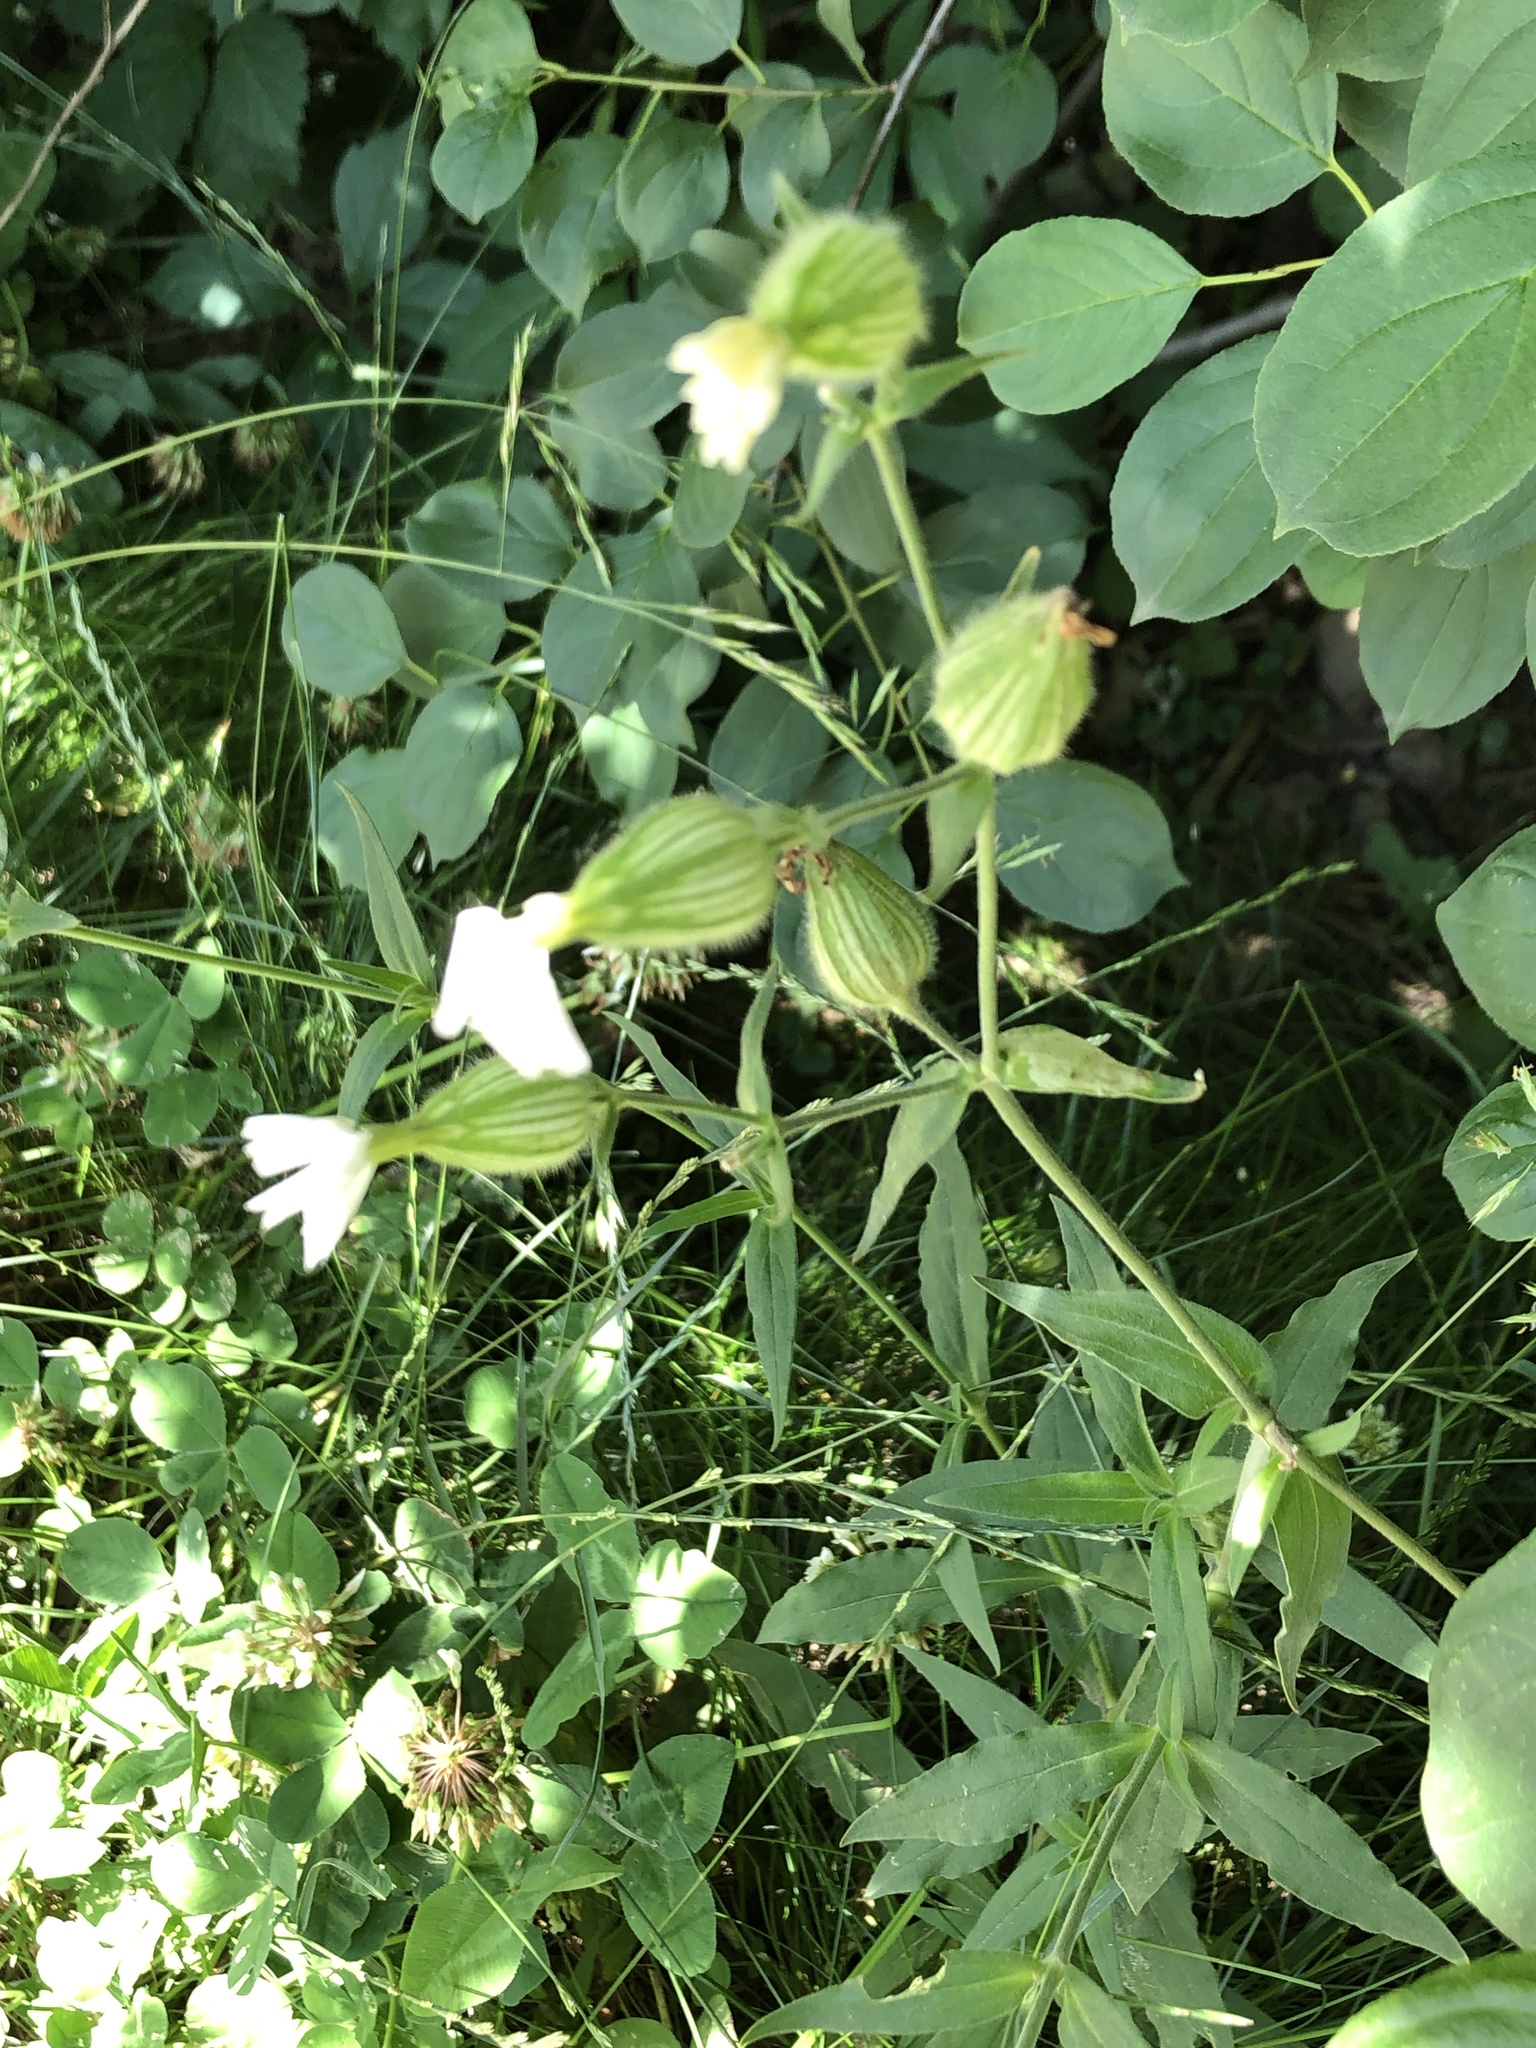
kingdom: Plantae
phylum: Tracheophyta
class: Magnoliopsida
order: Caryophyllales
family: Caryophyllaceae
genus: Silene
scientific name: Silene latifolia
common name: White campion
